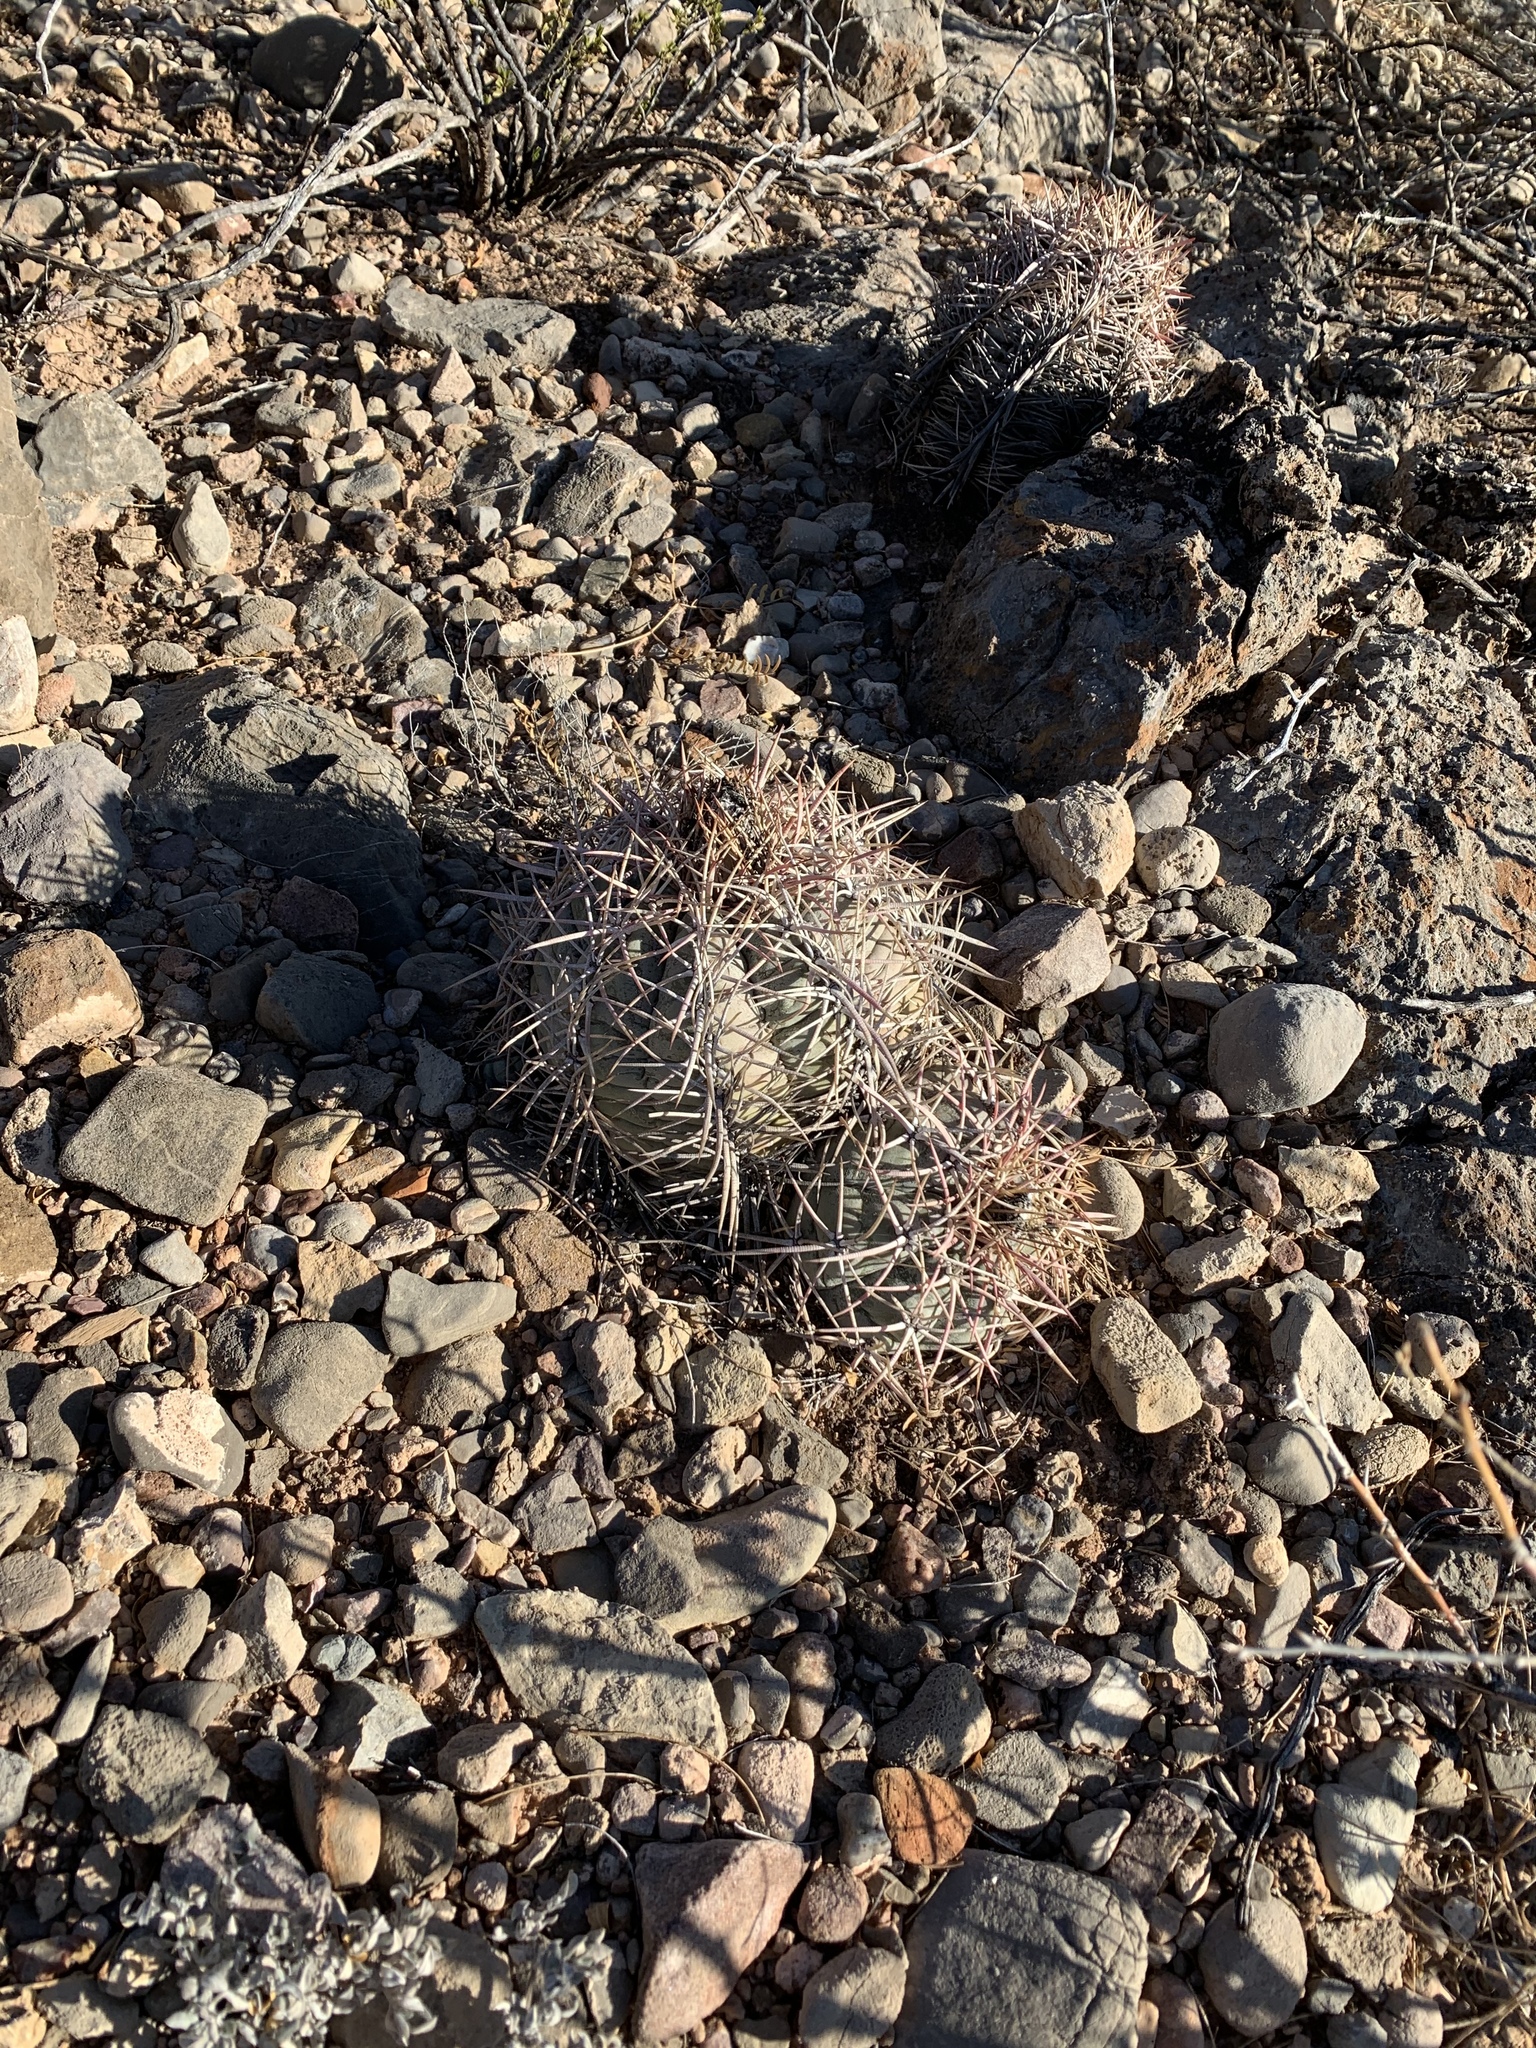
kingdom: Plantae
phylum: Tracheophyta
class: Magnoliopsida
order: Caryophyllales
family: Cactaceae
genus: Echinocactus
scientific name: Echinocactus horizonthalonius
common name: Devilshead
